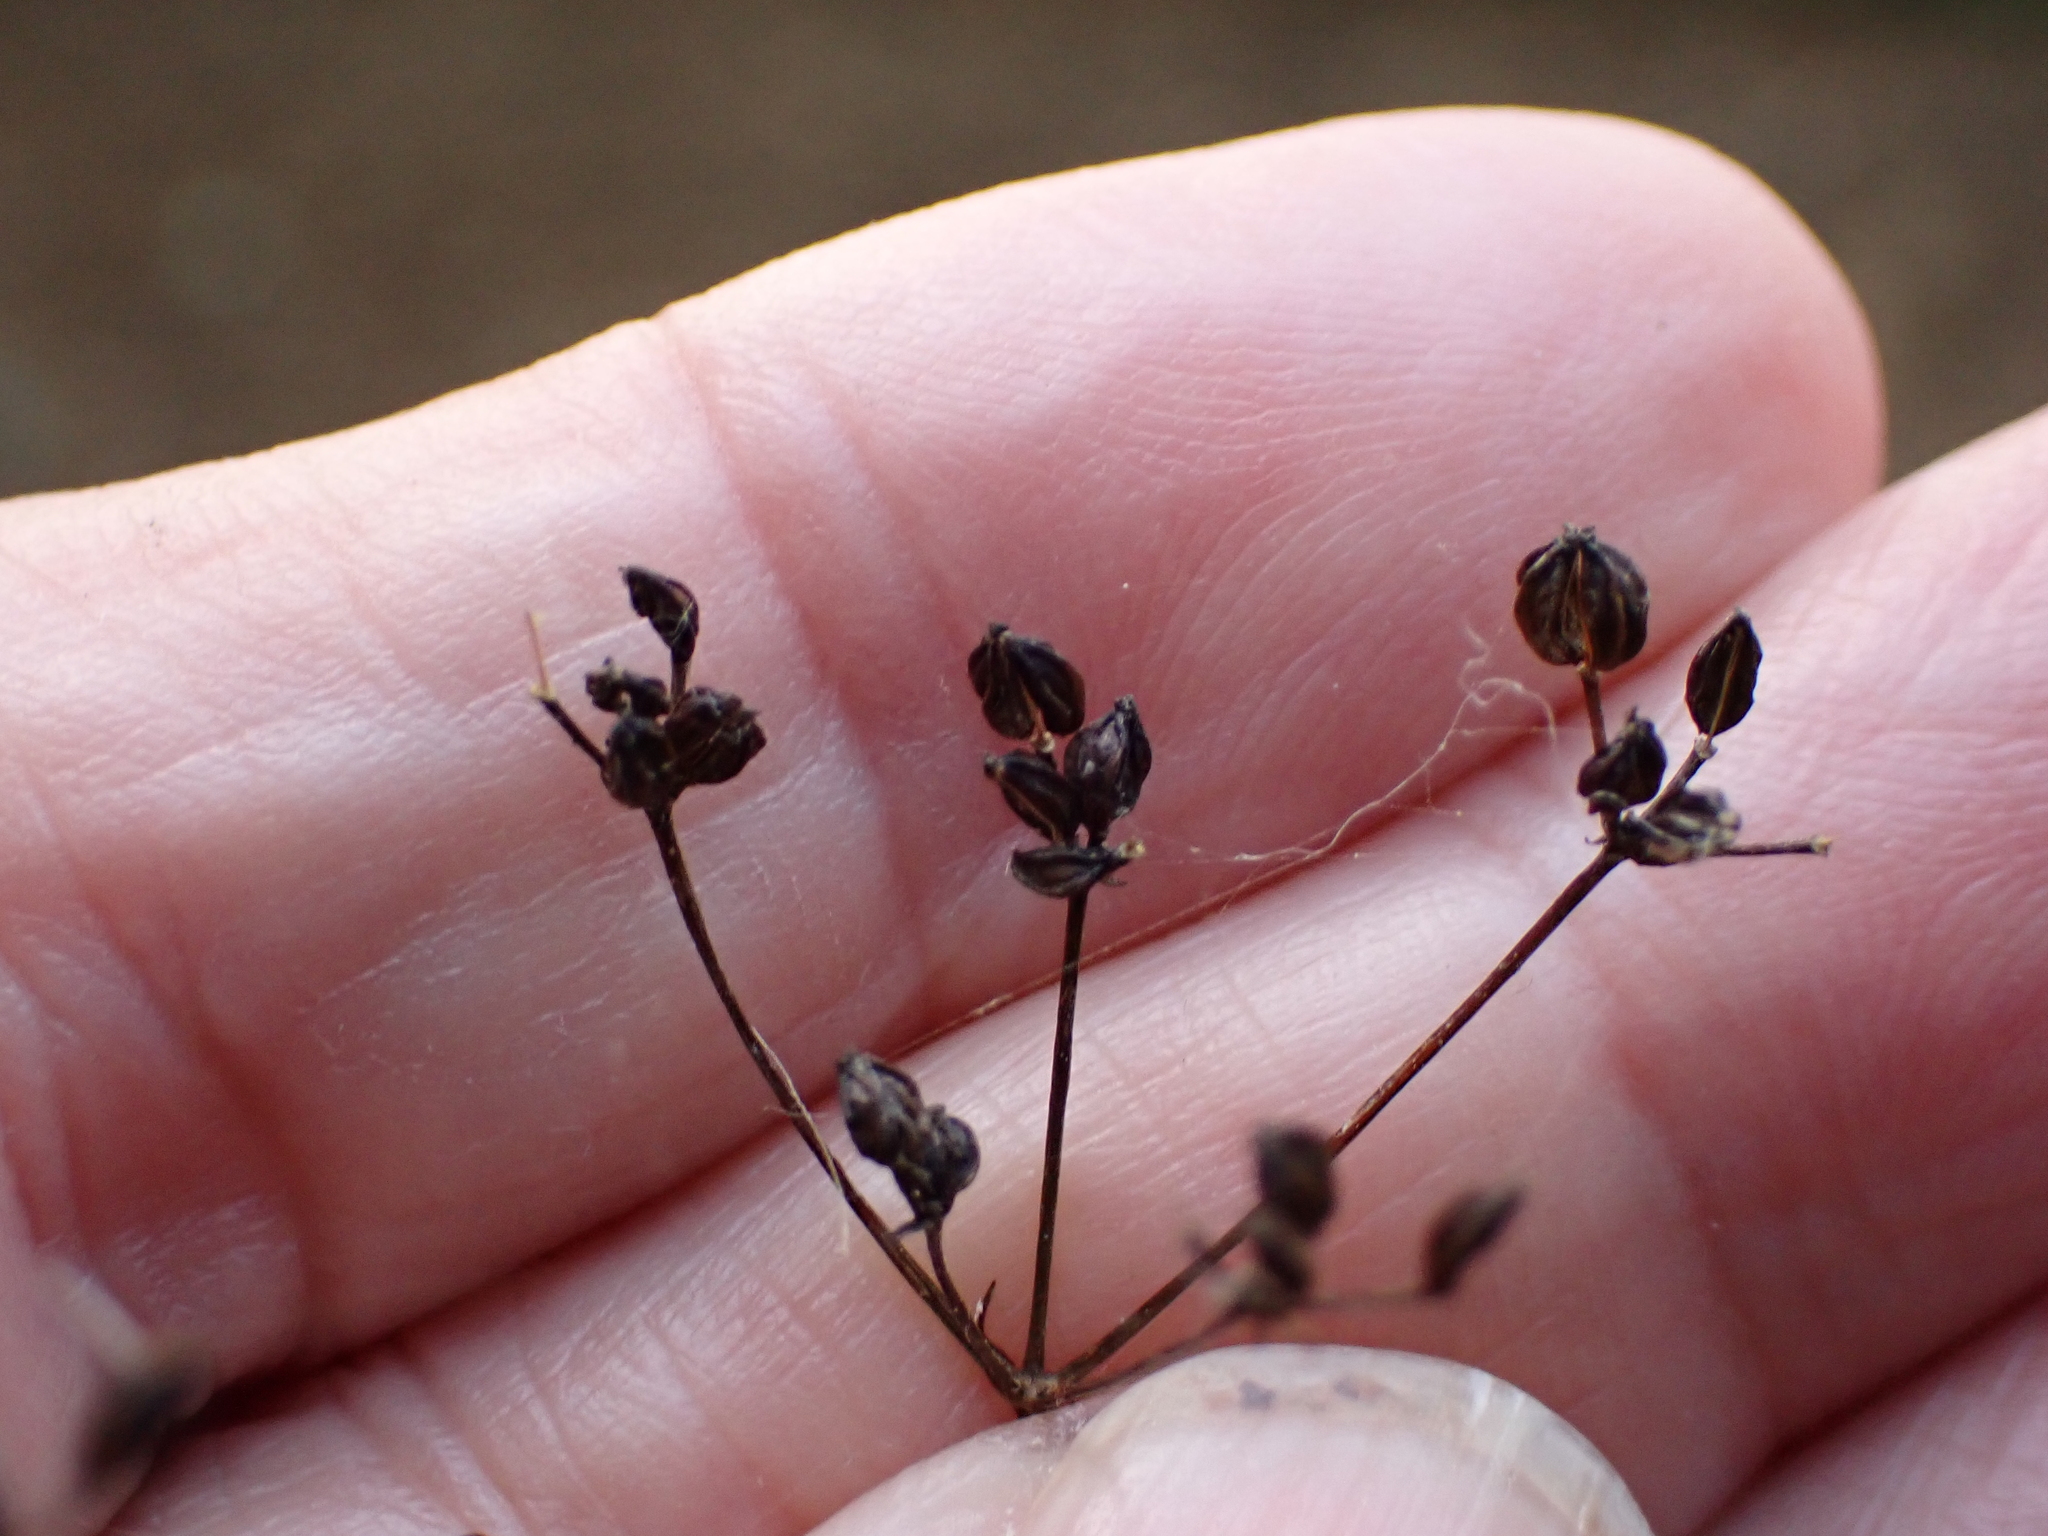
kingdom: Plantae
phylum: Tracheophyta
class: Magnoliopsida
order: Apiales
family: Apiaceae
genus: Sison
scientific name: Sison amomum
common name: Stone-parsley
